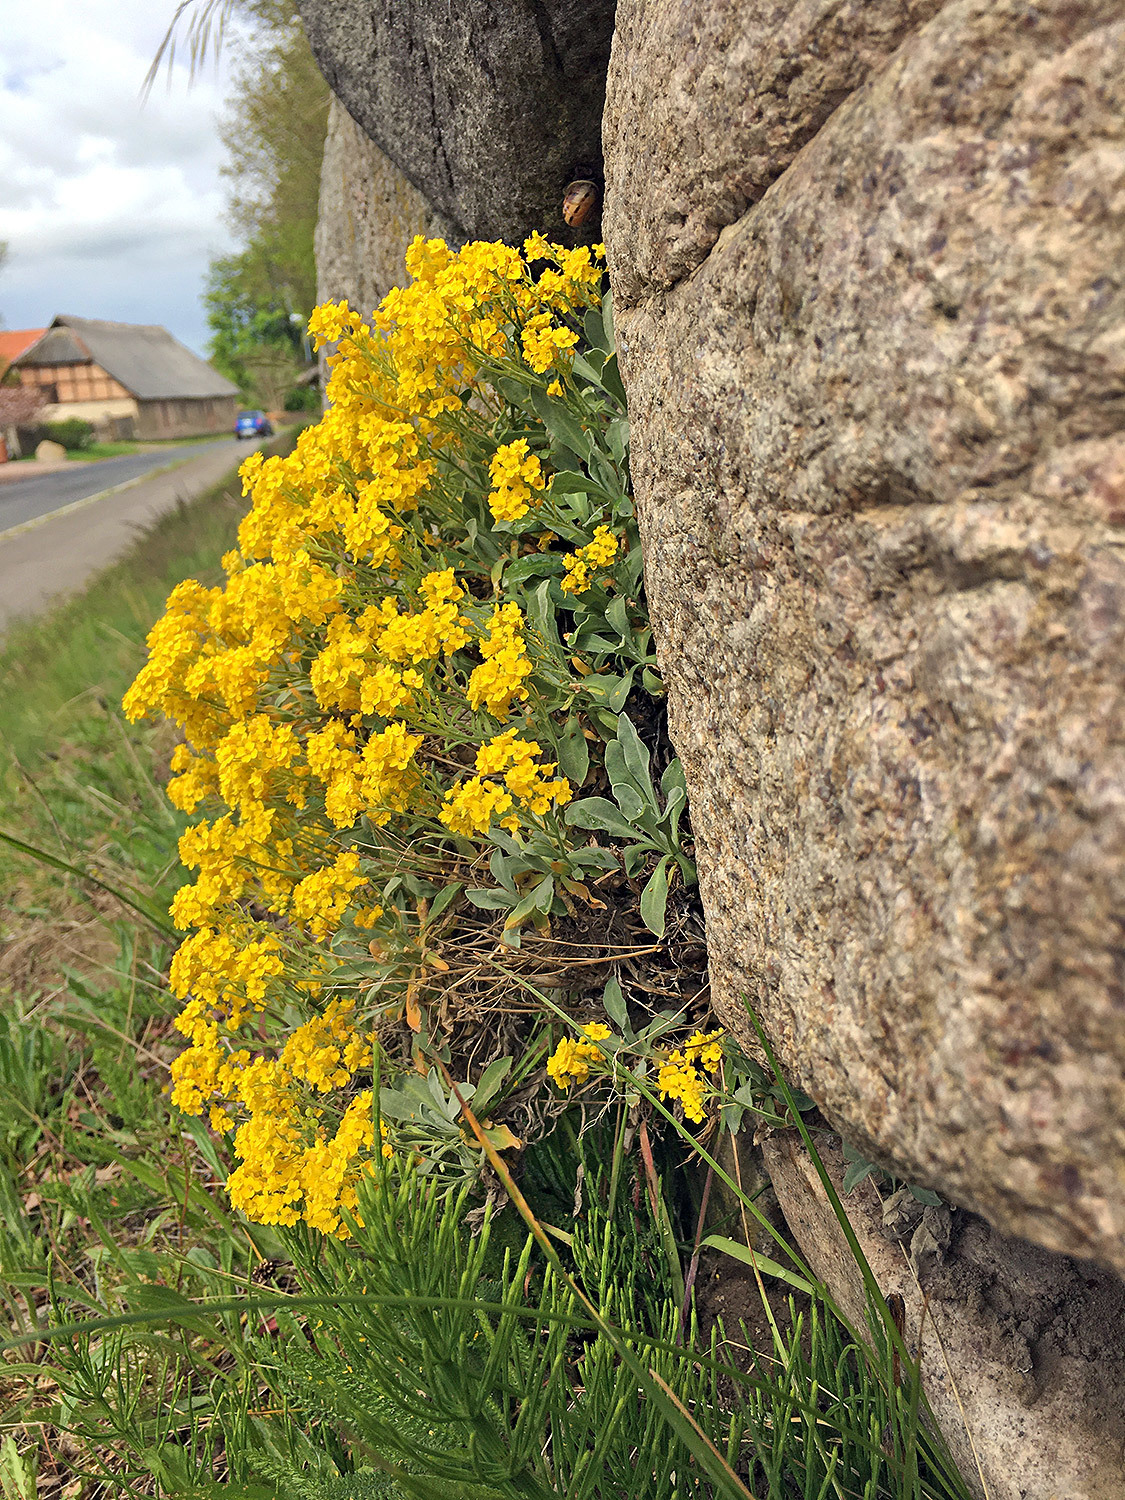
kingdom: Plantae
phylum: Tracheophyta
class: Magnoliopsida
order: Brassicales
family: Brassicaceae
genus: Aurinia
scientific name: Aurinia saxatilis
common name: Golden-tuft alyssum
